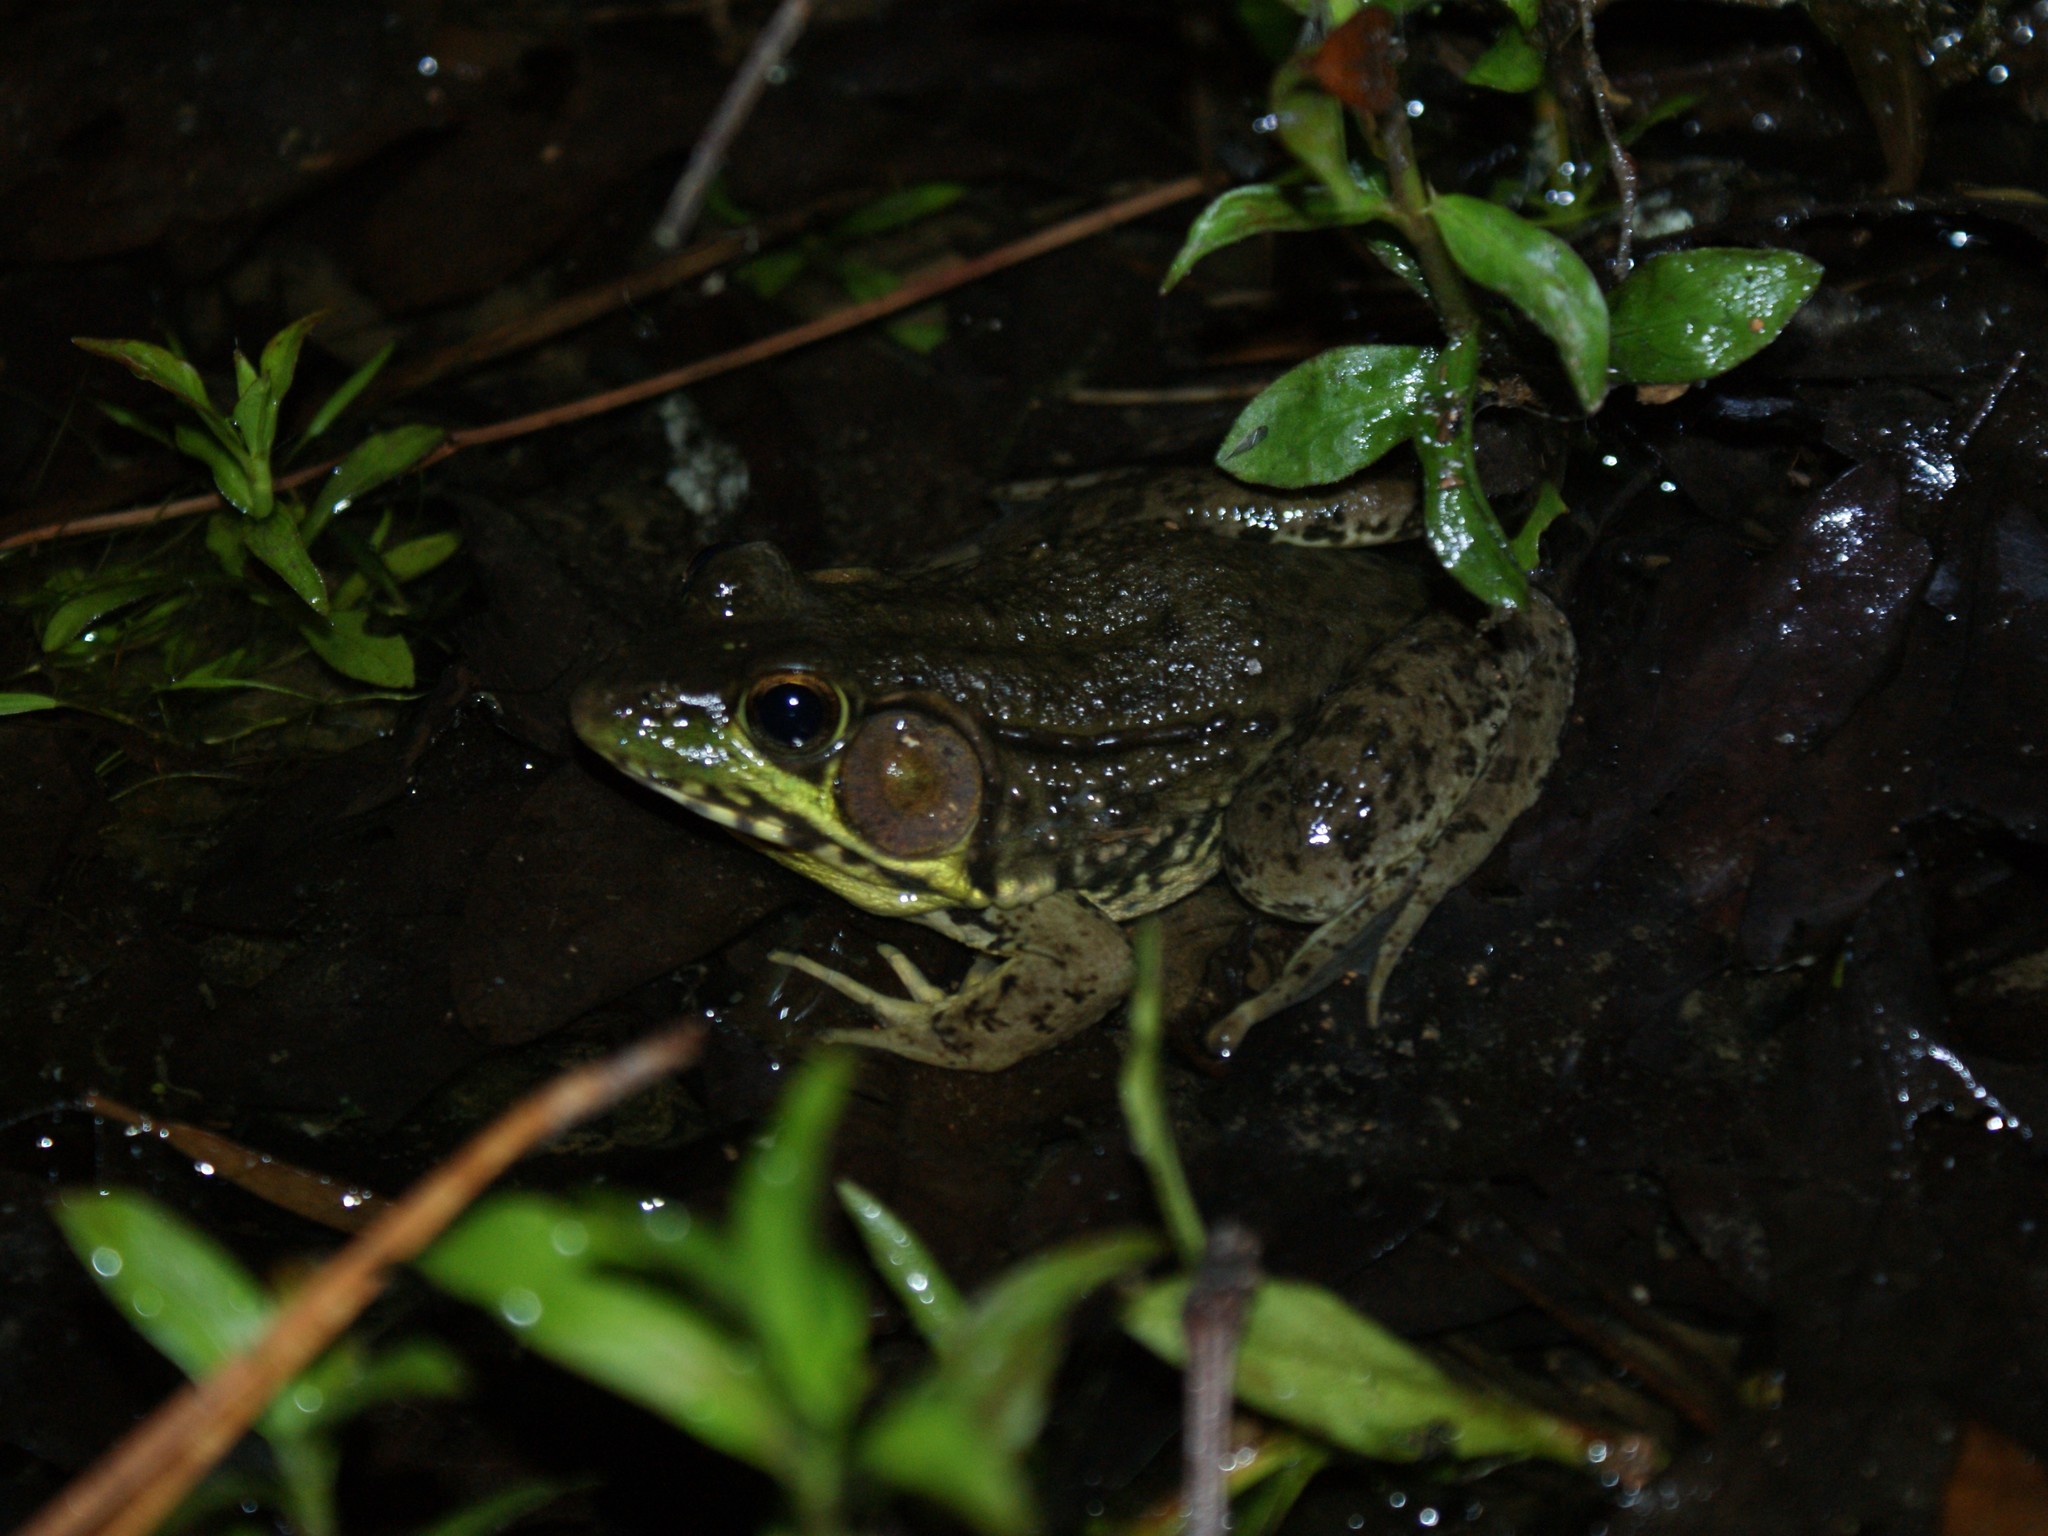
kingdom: Animalia
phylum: Chordata
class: Amphibia
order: Anura
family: Ranidae
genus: Lithobates
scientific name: Lithobates clamitans
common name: Green frog
